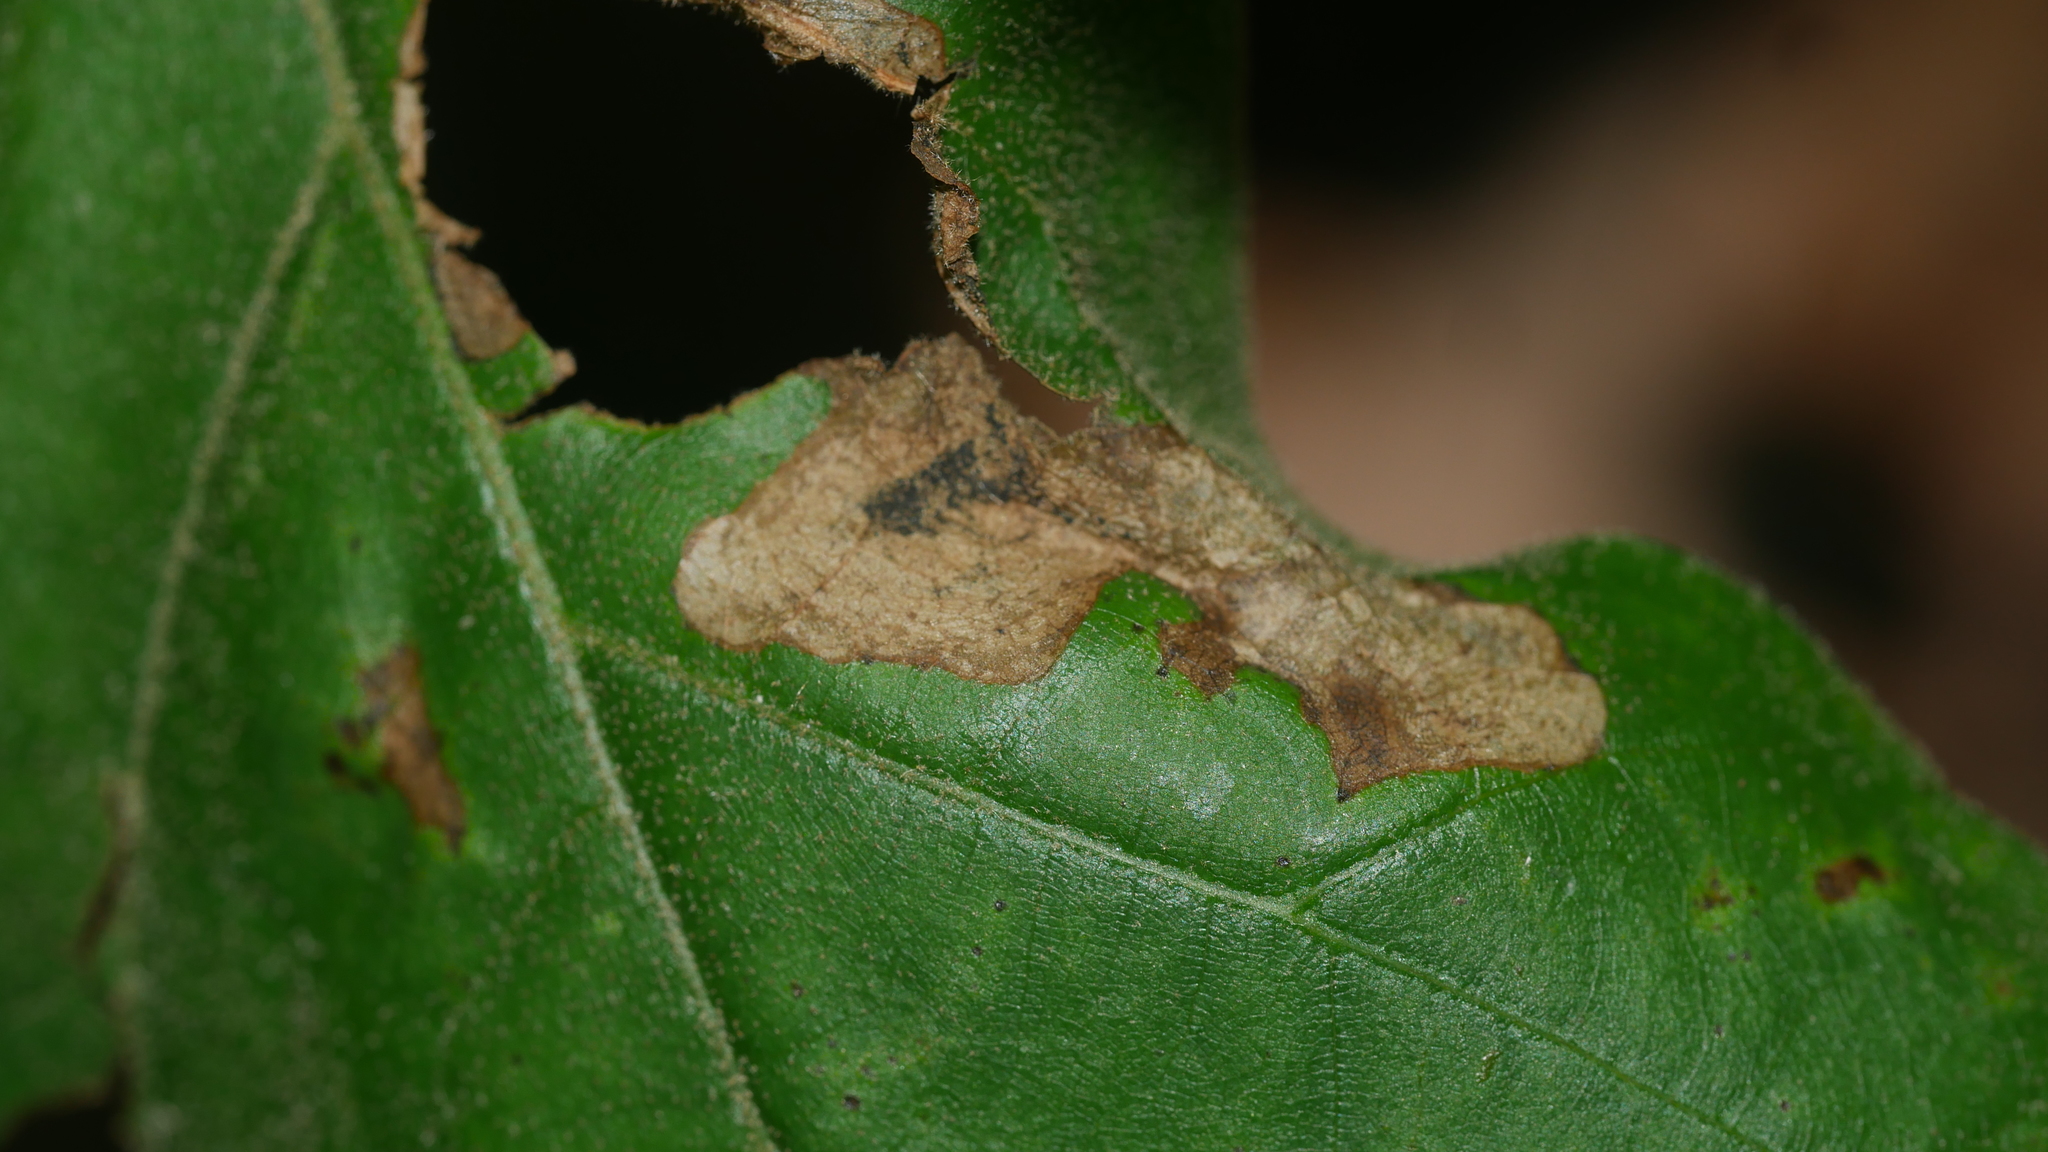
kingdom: Animalia
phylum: Arthropoda
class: Insecta
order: Diptera
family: Agromyzidae
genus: Japanagromyza
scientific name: Japanagromyza viridula
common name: Oak shothole leafminer
